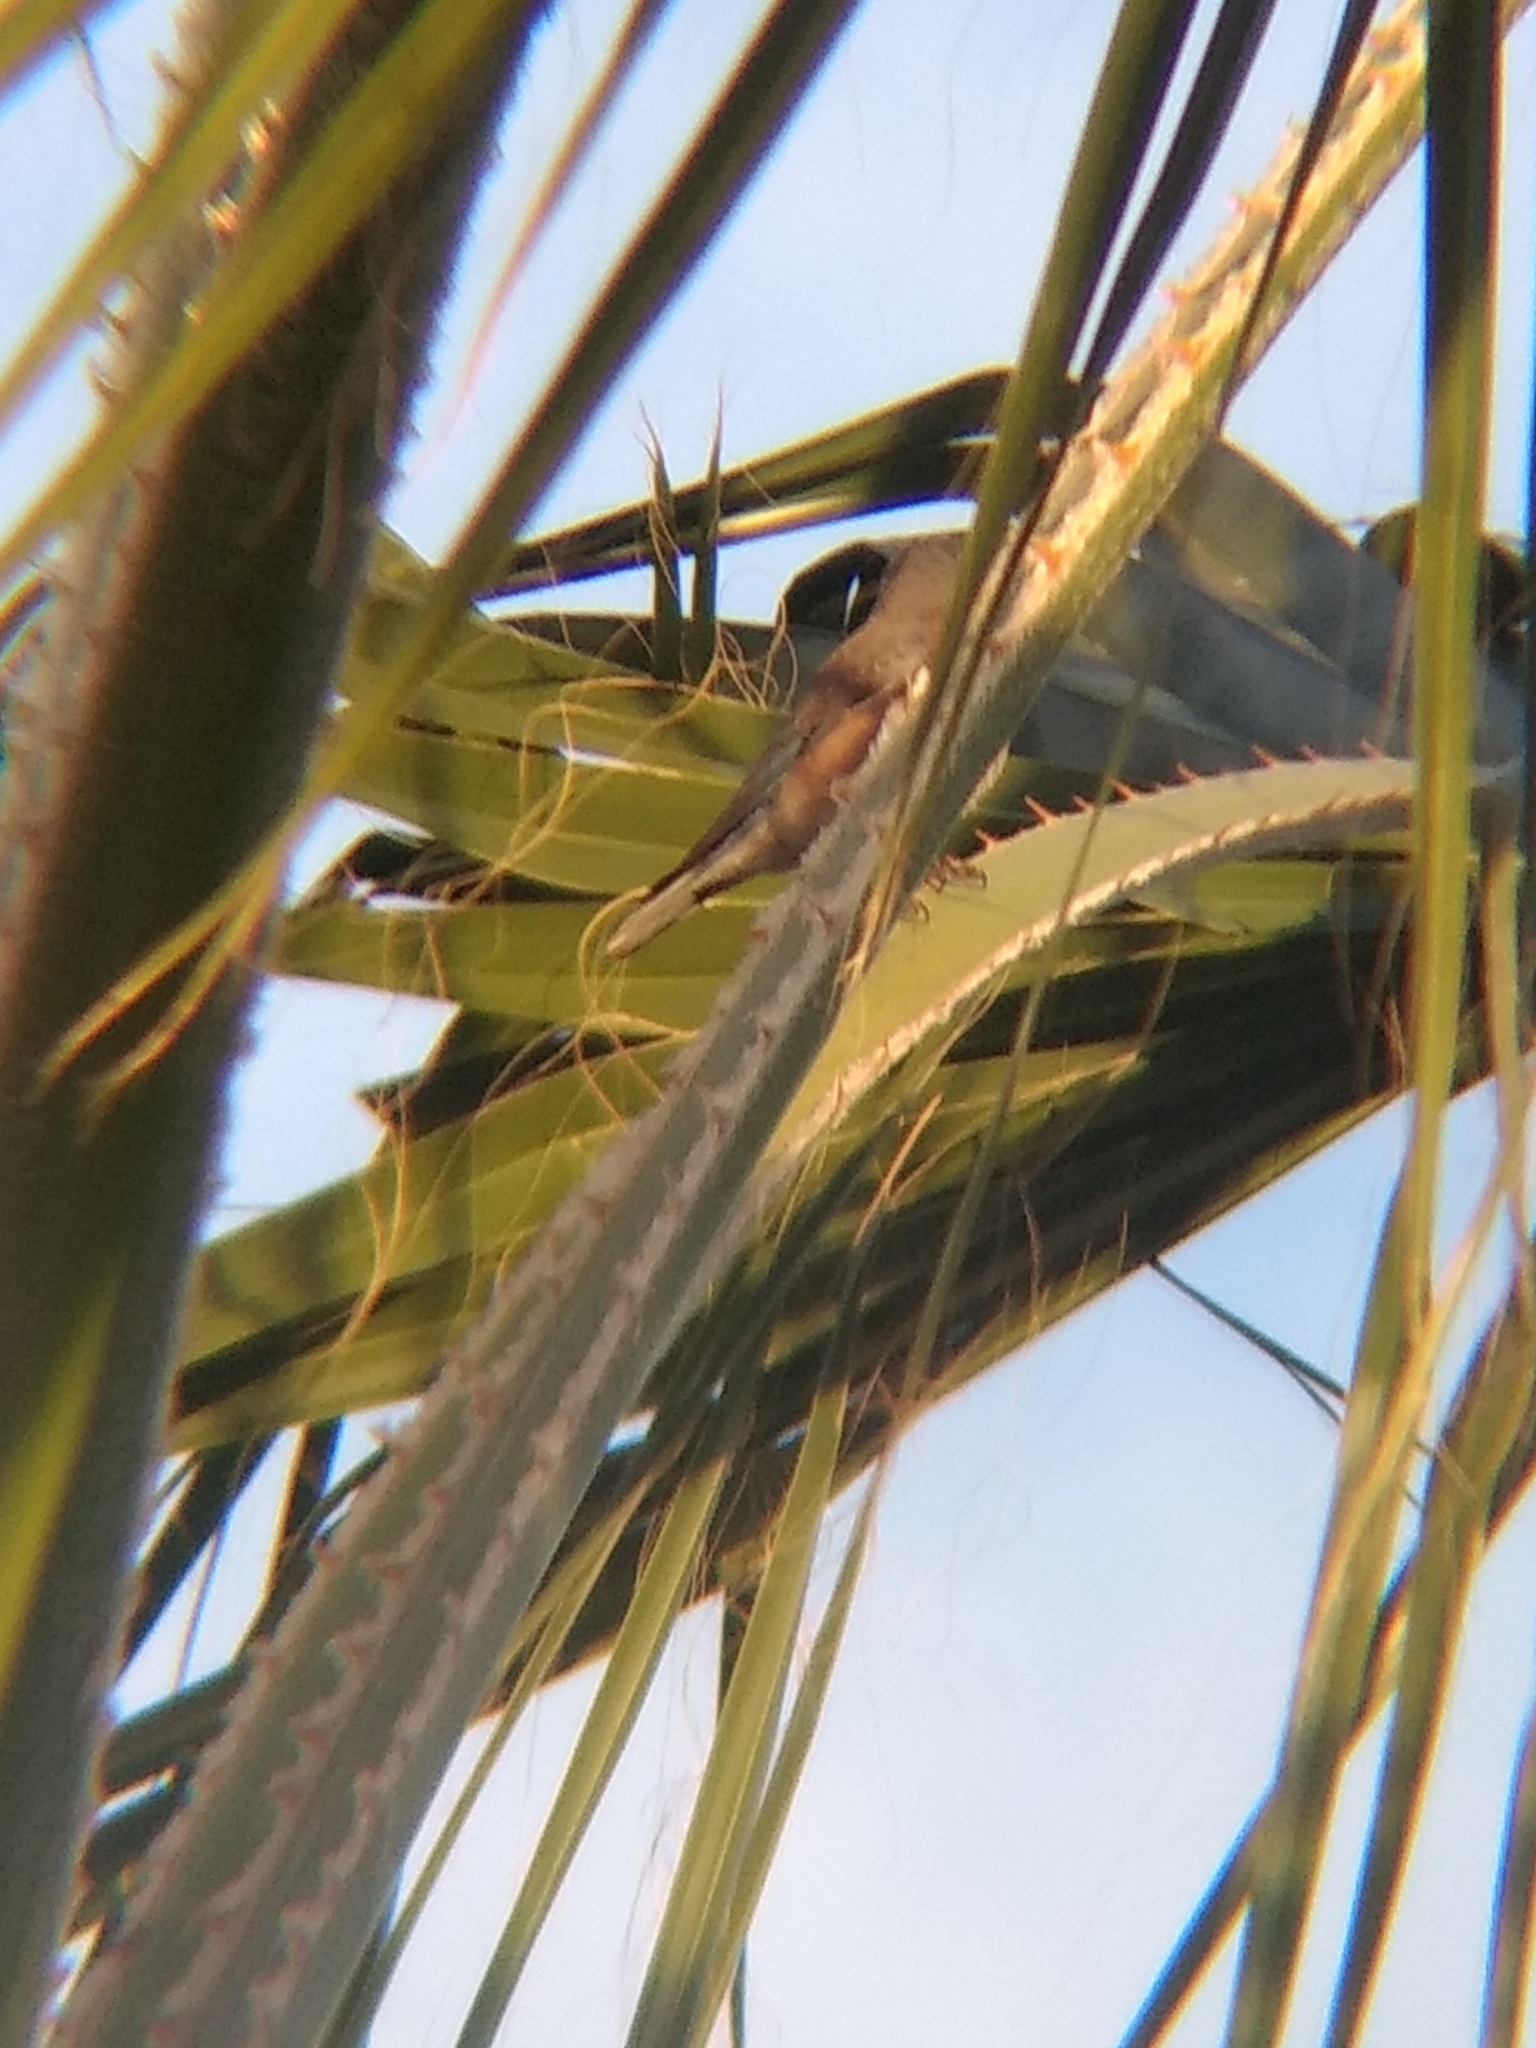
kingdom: Animalia
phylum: Chordata
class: Aves
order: Passeriformes
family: Turdidae
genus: Sialia
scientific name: Sialia mexicana
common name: Western bluebird
